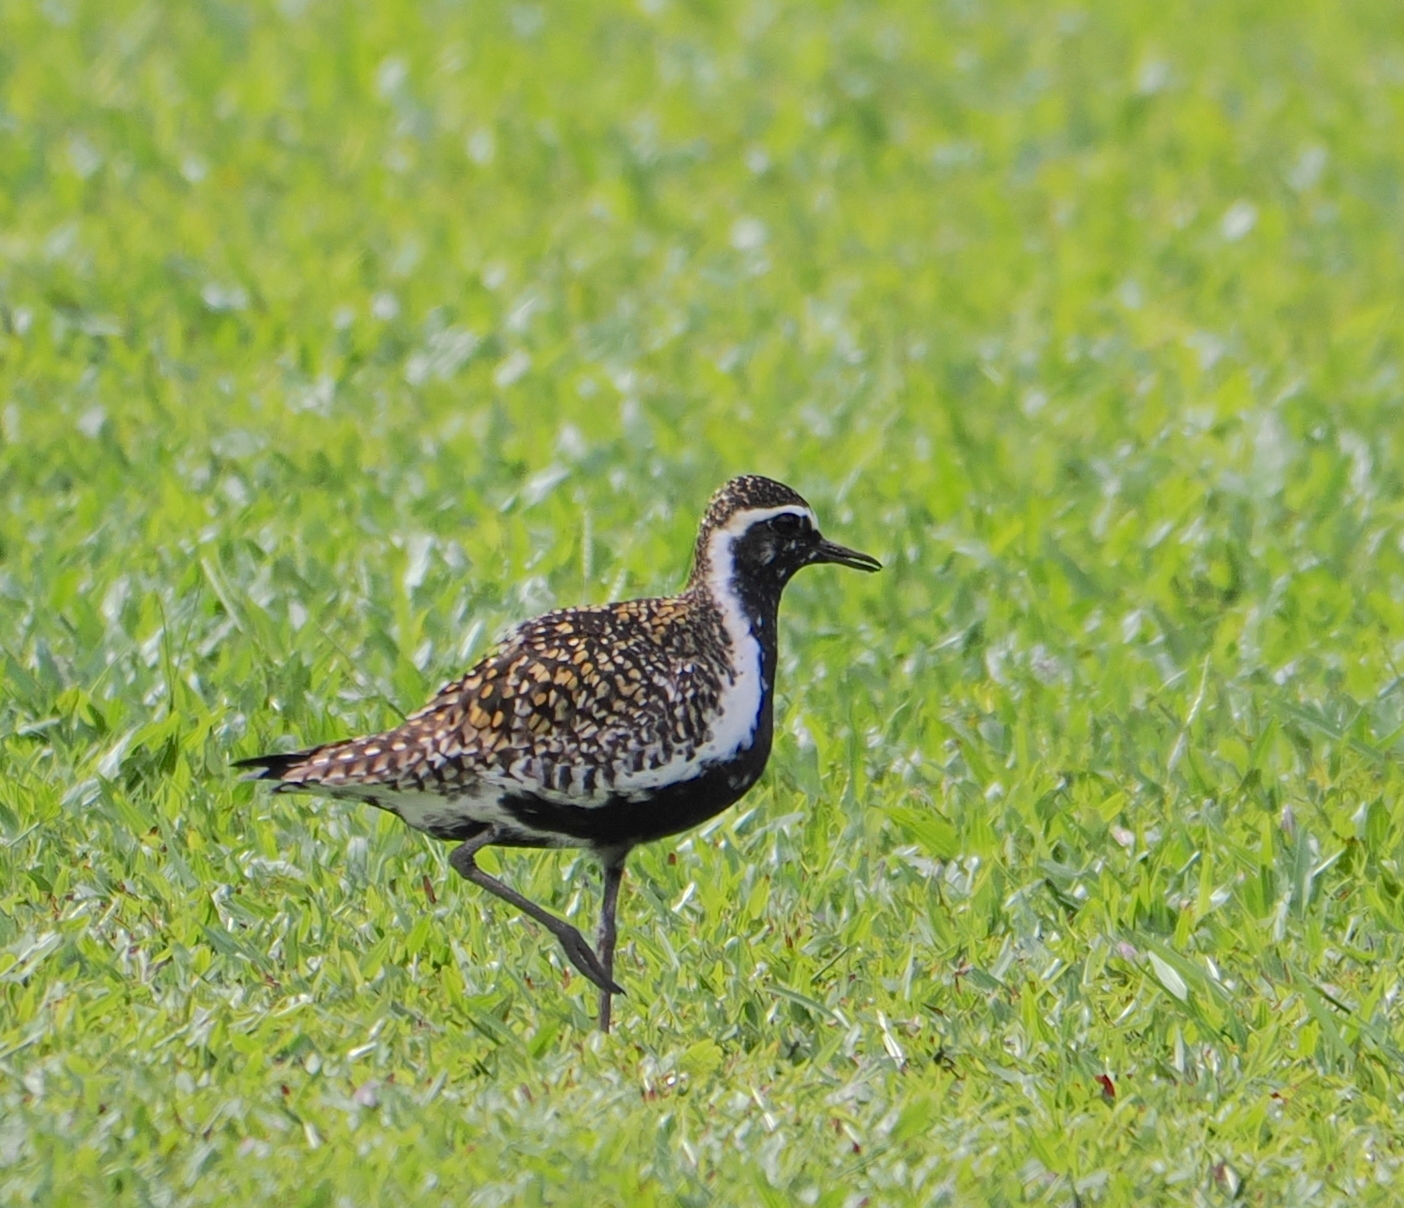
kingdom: Animalia
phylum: Chordata
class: Aves
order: Charadriiformes
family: Charadriidae
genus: Pluvialis
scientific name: Pluvialis fulva
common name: Pacific golden plover
